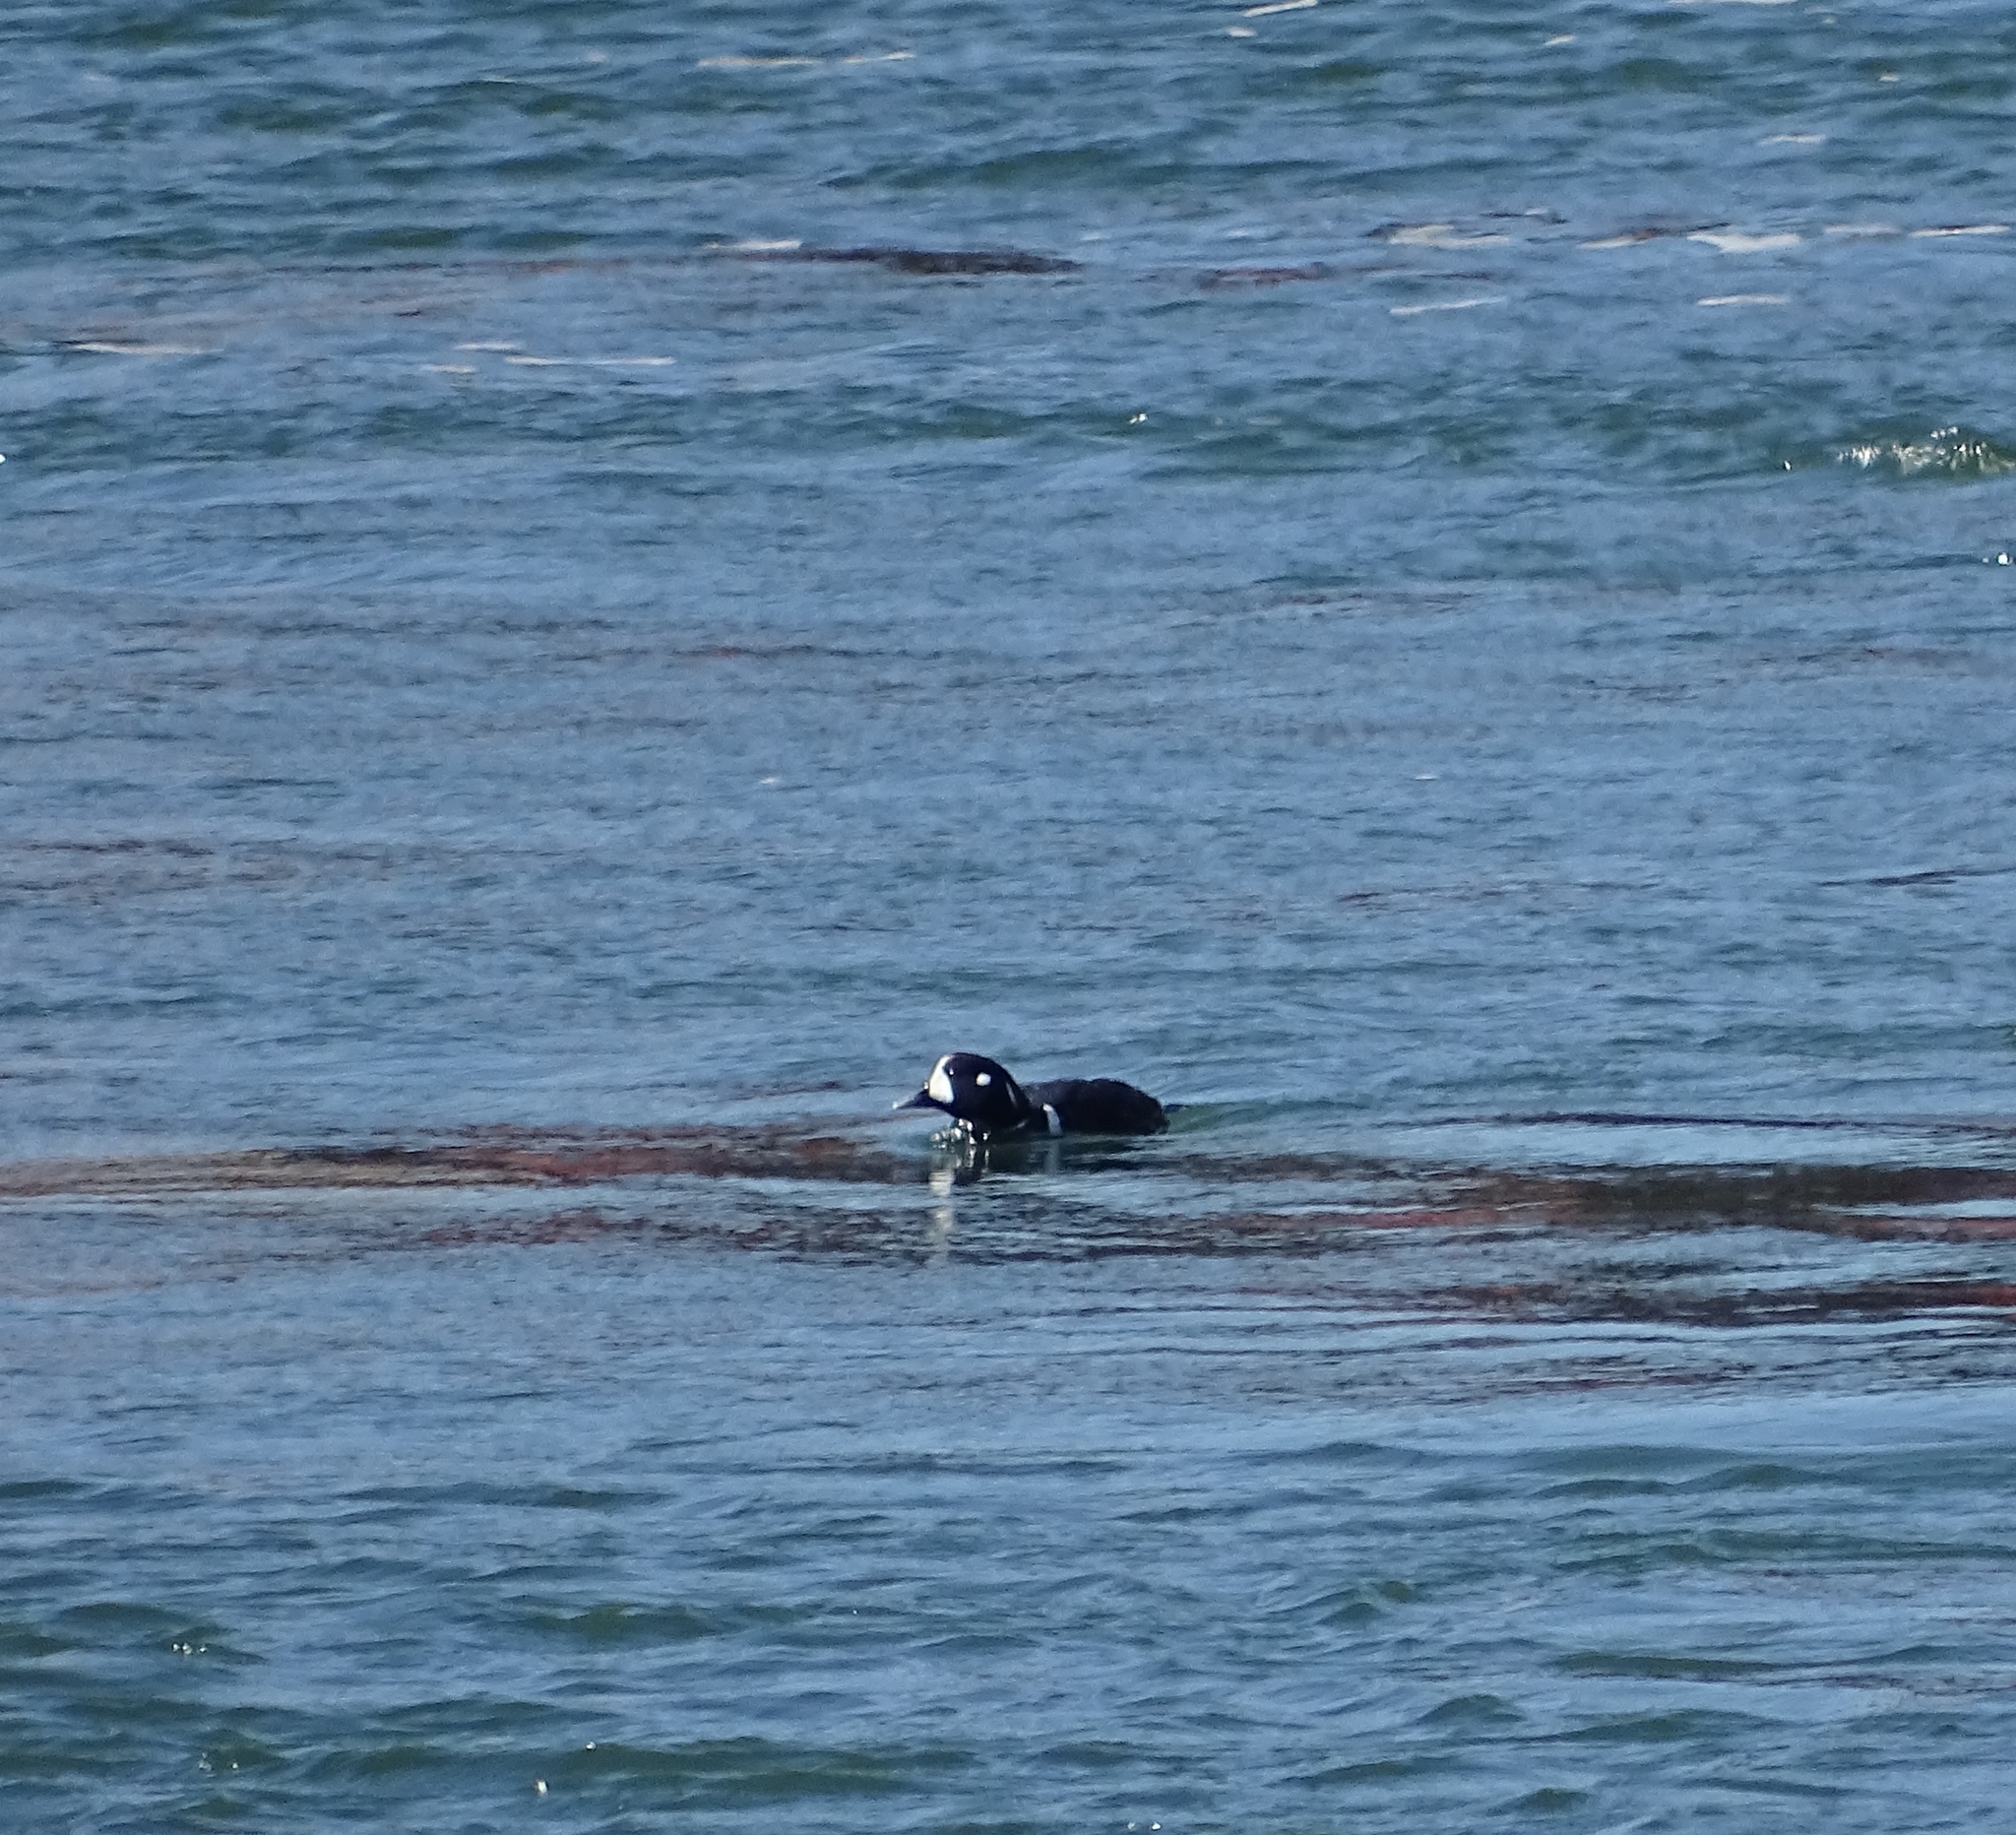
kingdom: Animalia
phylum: Chordata
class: Aves
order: Anseriformes
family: Anatidae
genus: Histrionicus
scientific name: Histrionicus histrionicus
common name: Harlequin duck
